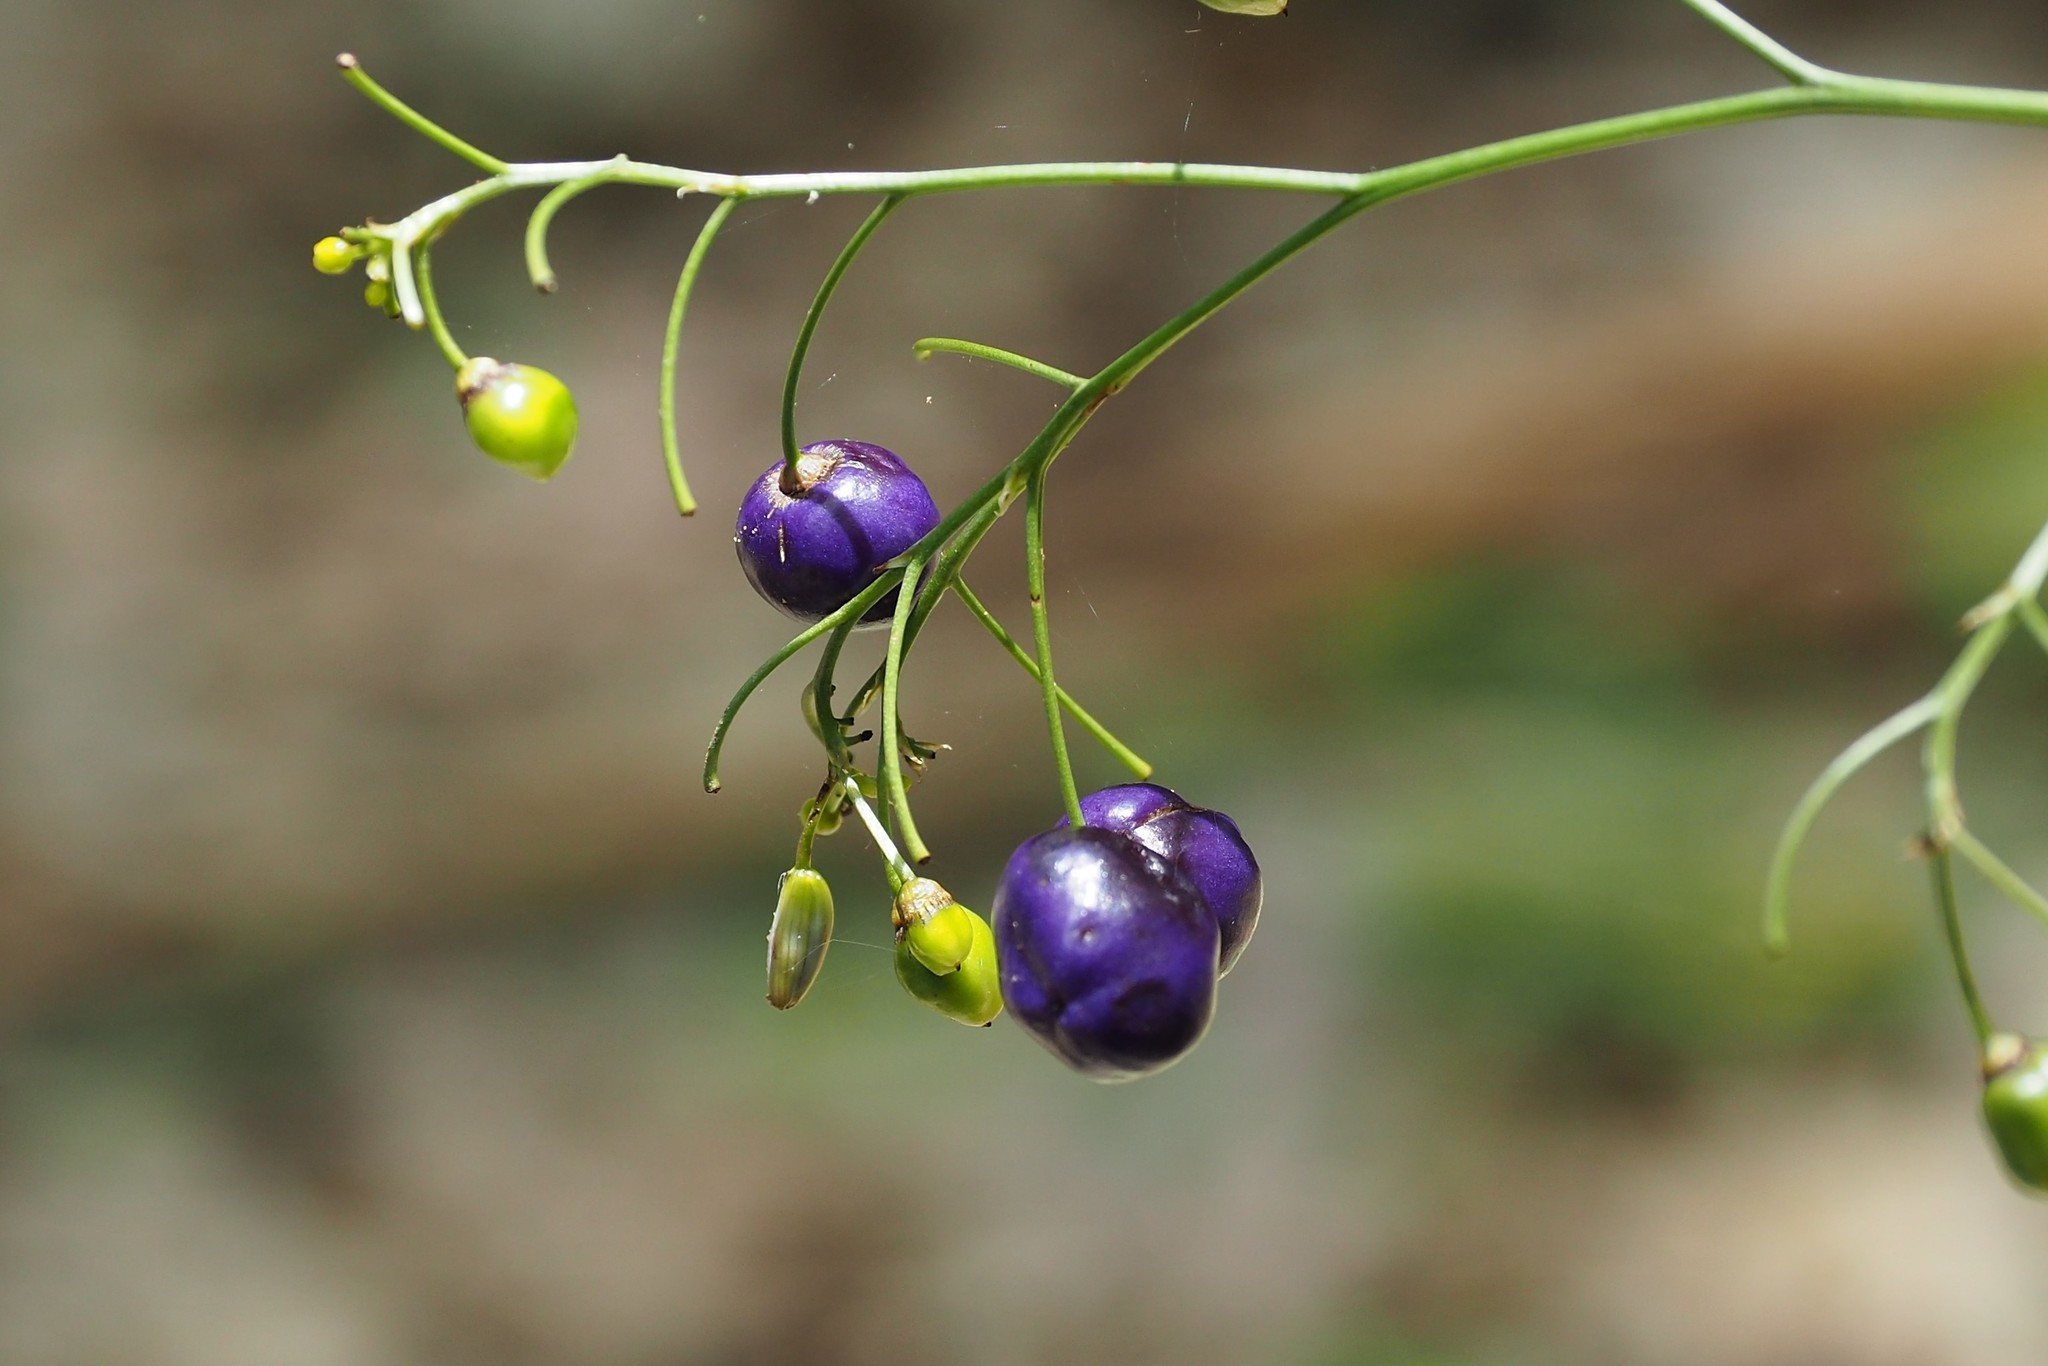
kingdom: Plantae
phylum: Tracheophyta
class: Liliopsida
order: Asparagales
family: Asphodelaceae
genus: Dianella
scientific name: Dianella ensifolia
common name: New zealand lilyplant
